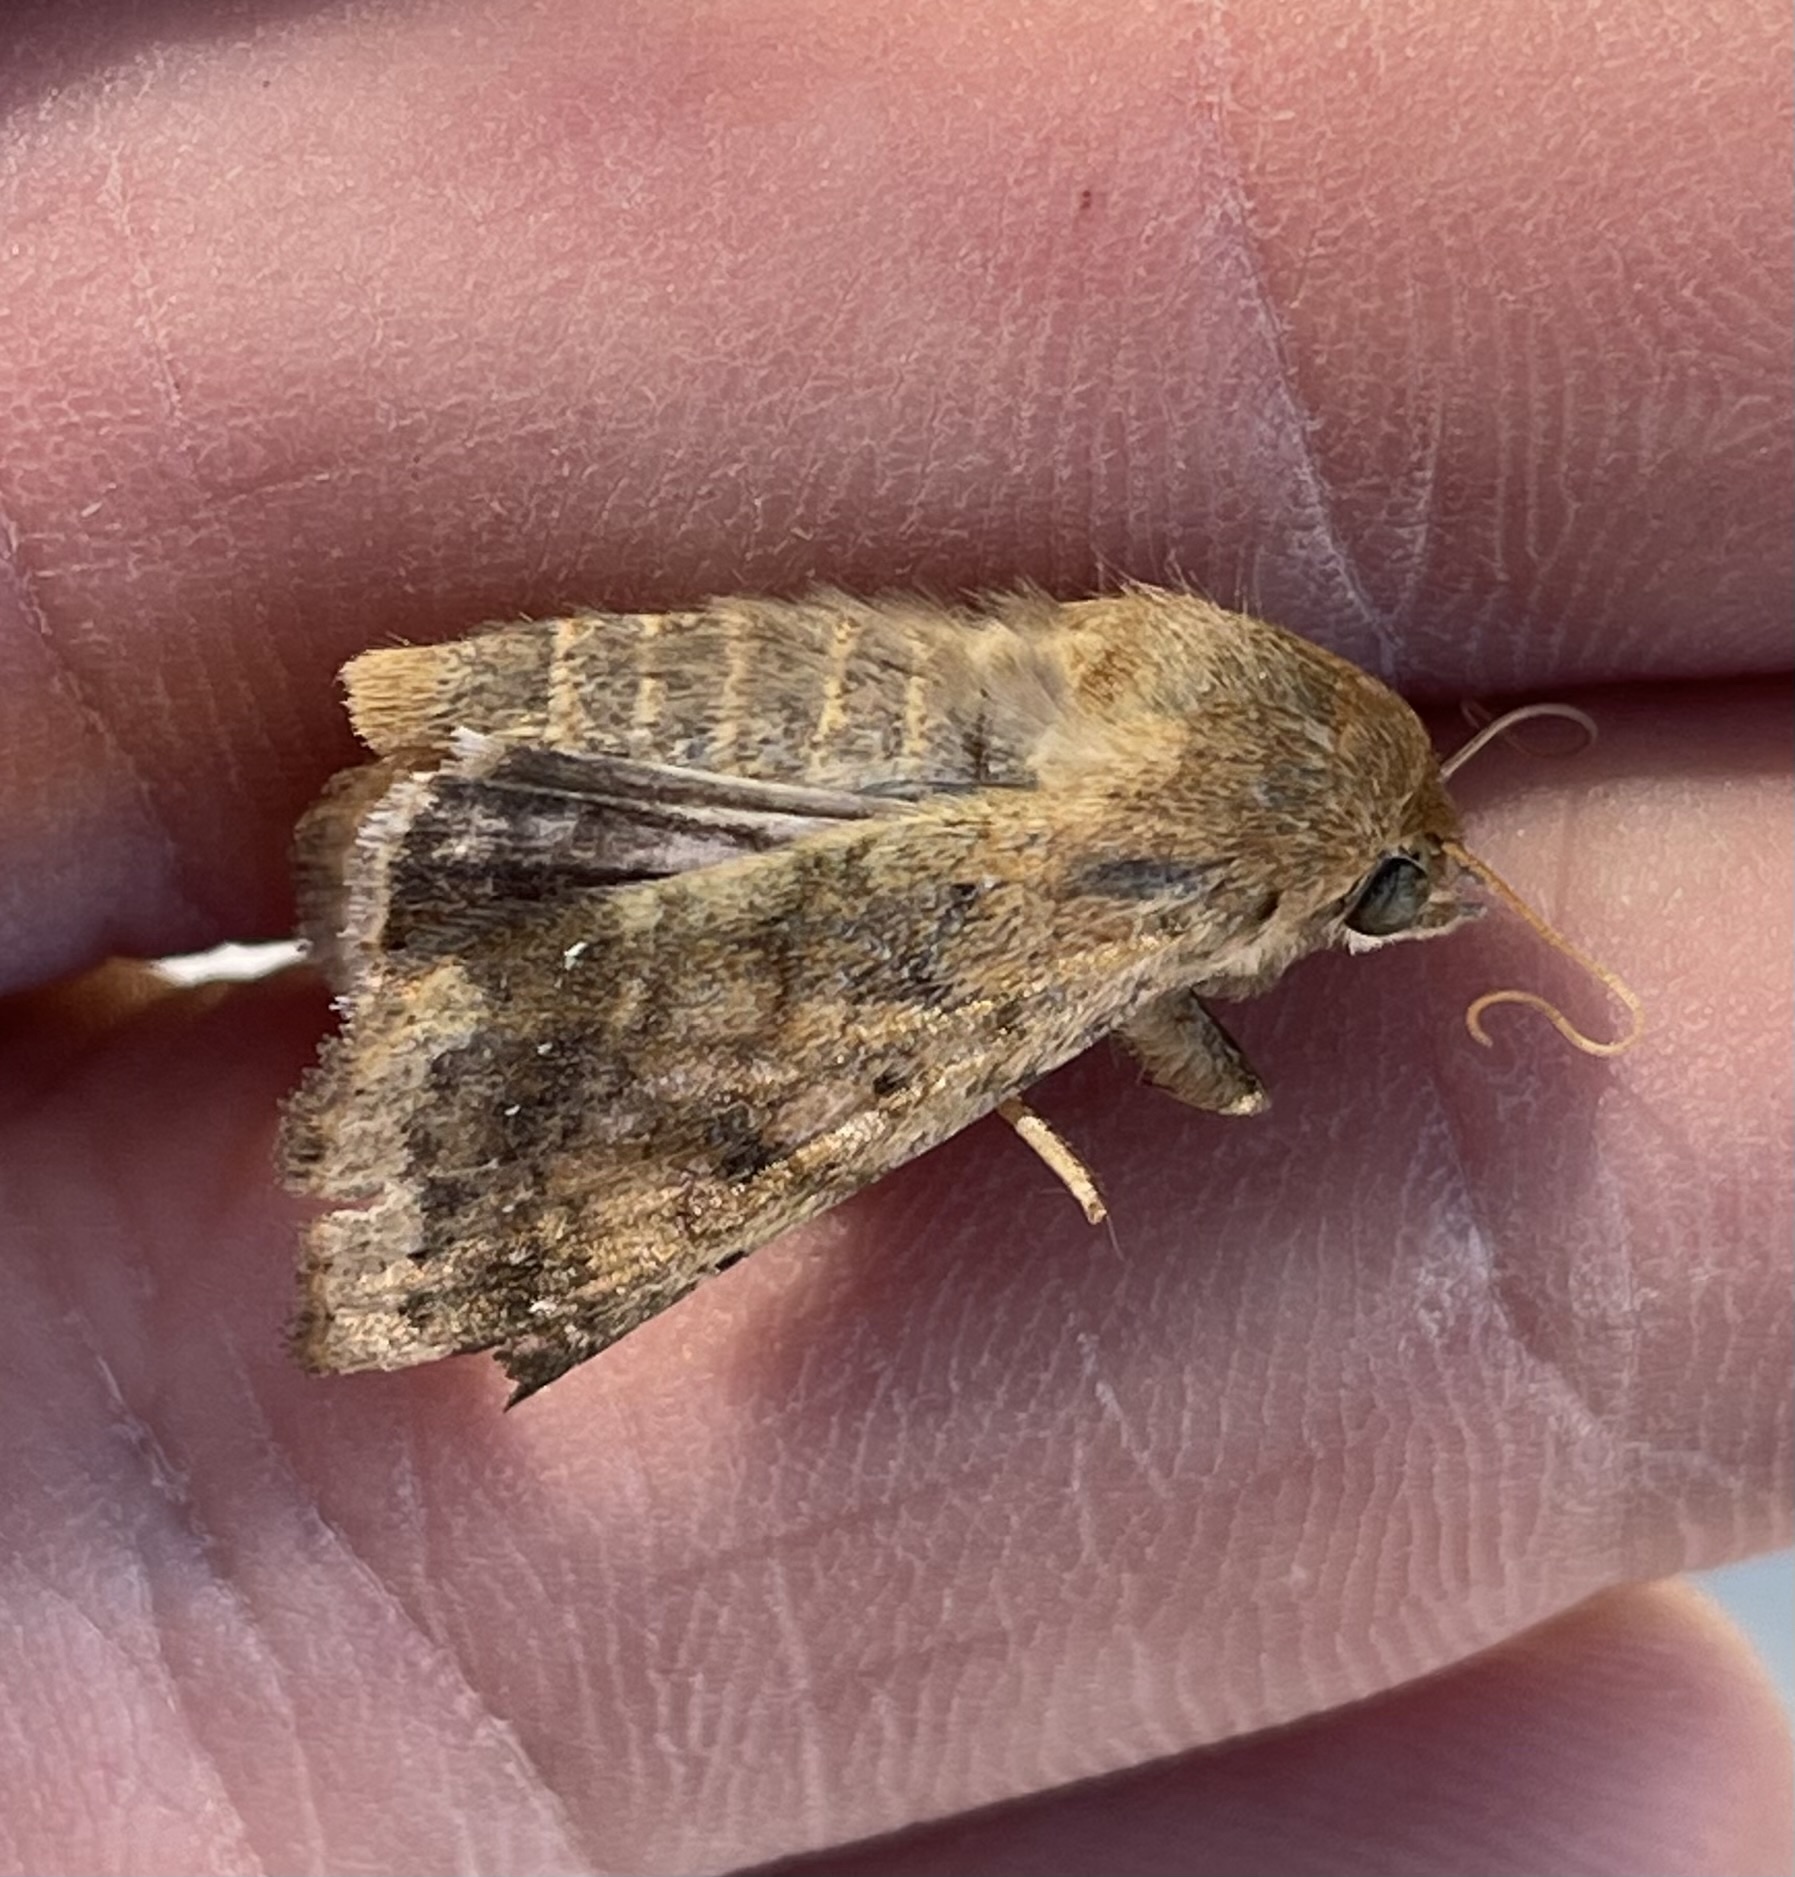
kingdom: Animalia
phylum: Arthropoda
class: Insecta
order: Lepidoptera
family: Noctuidae
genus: Helicoverpa
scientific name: Helicoverpa zea
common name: Bollworm
